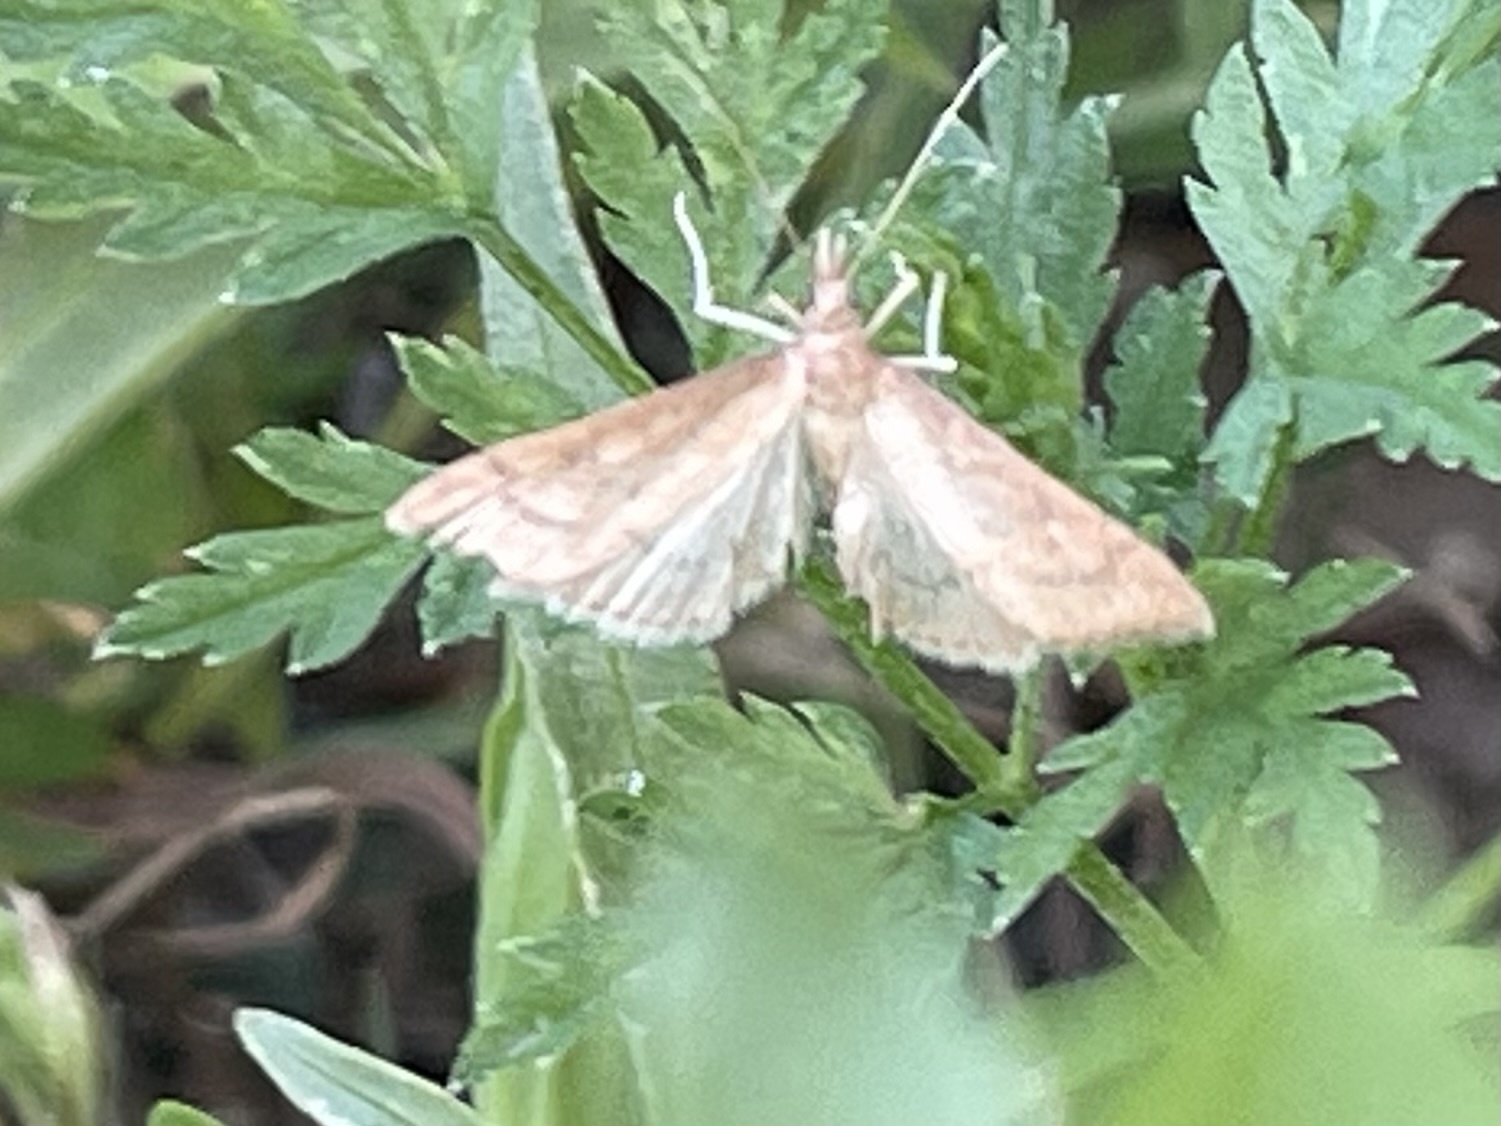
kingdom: Animalia
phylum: Arthropoda
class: Insecta
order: Lepidoptera
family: Crambidae
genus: Udea
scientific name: Udea rubigalis
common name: Celery leaftier moth
